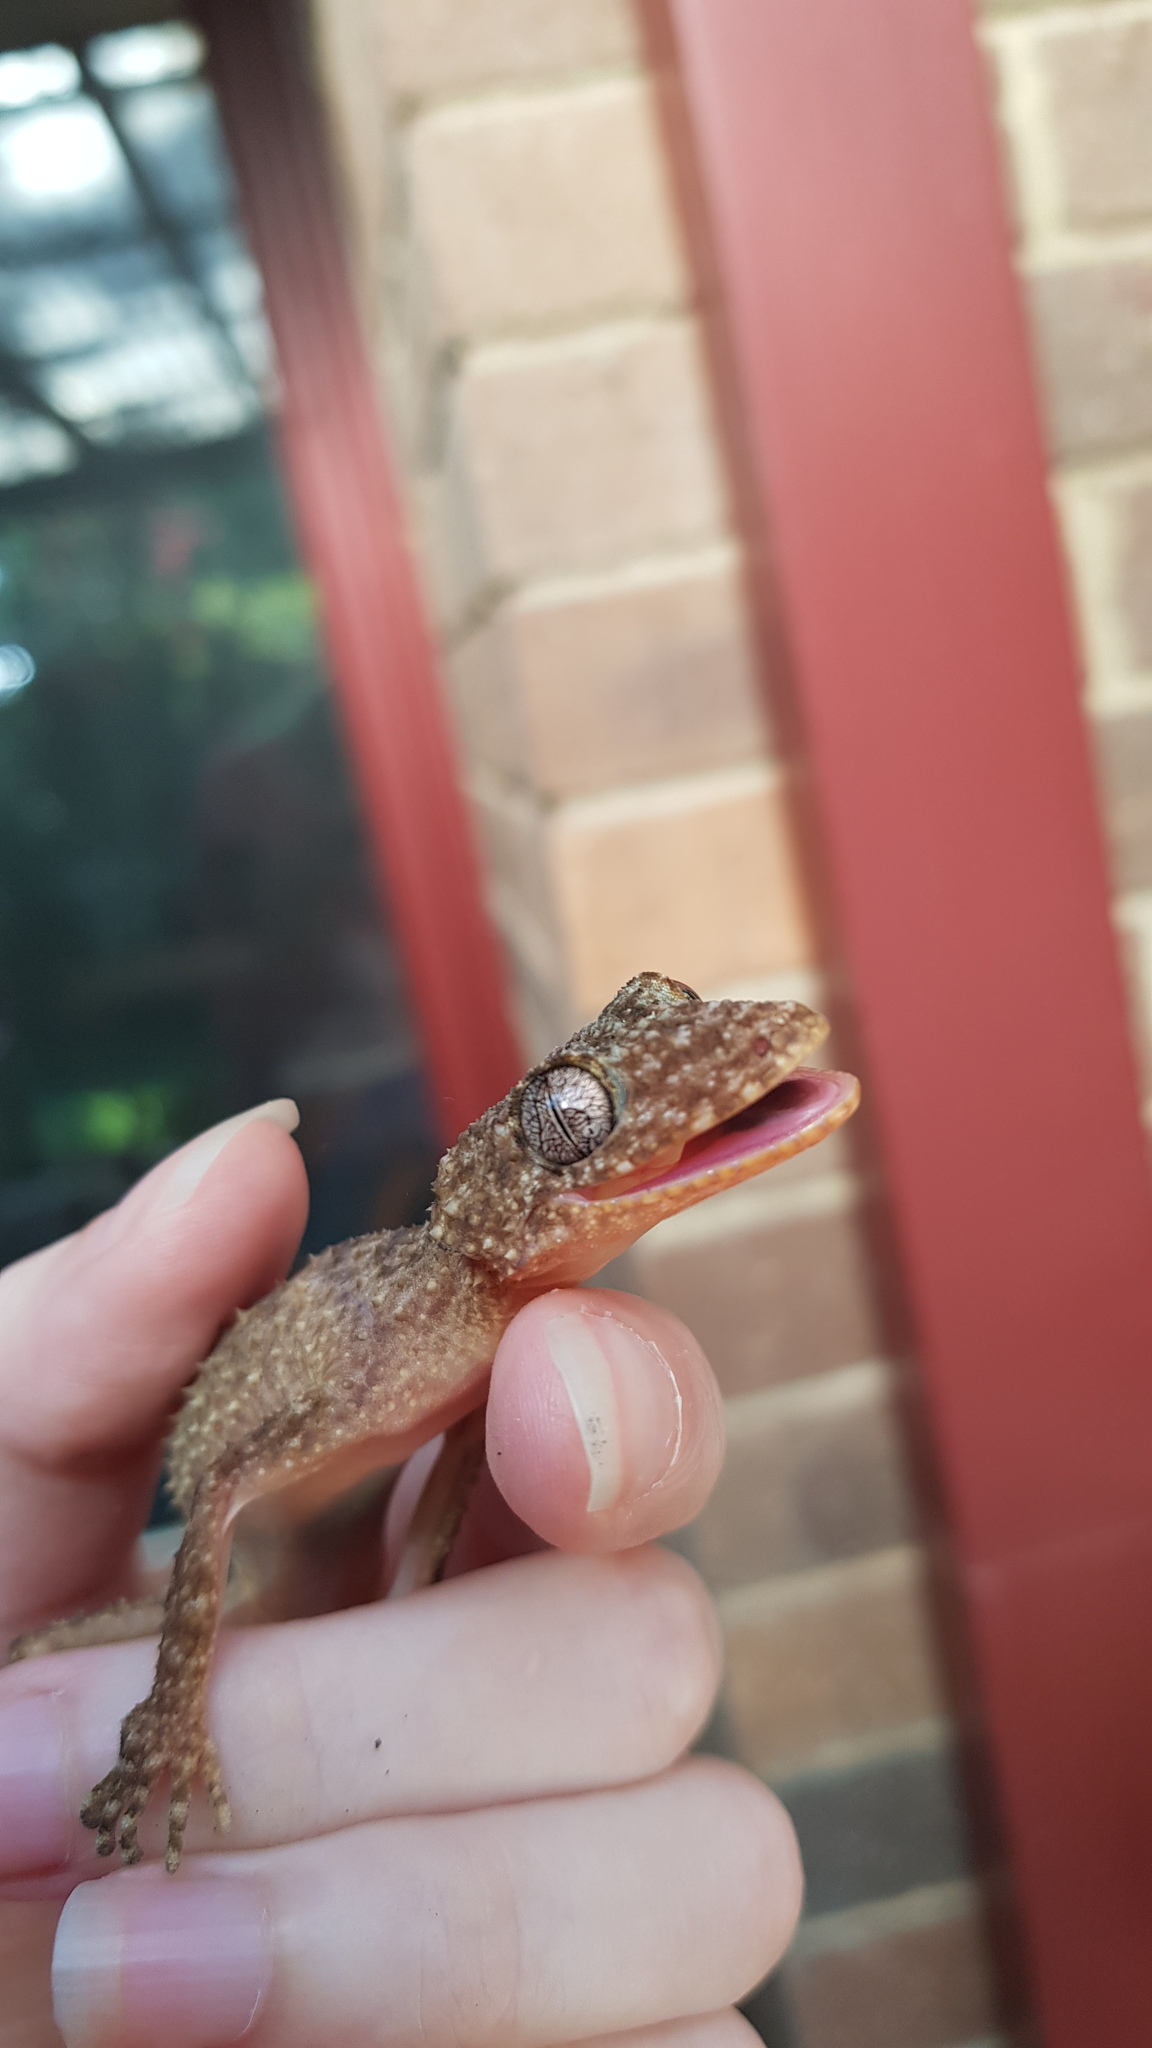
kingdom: Animalia
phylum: Chordata
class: Squamata
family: Carphodactylidae
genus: Phyllurus
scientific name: Phyllurus platurus
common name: Broad-tailed gecko
